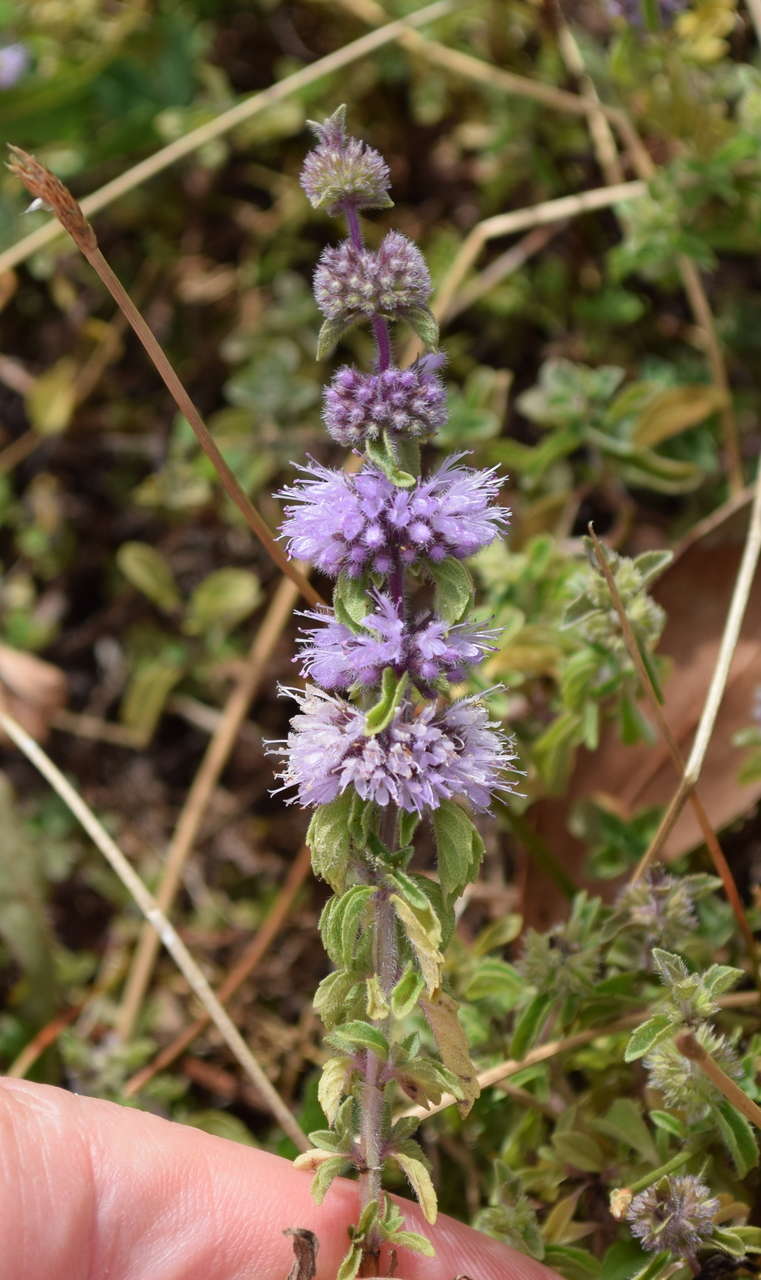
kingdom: Plantae
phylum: Tracheophyta
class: Magnoliopsida
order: Lamiales
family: Lamiaceae
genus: Mentha
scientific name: Mentha pulegium
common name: Pennyroyal
